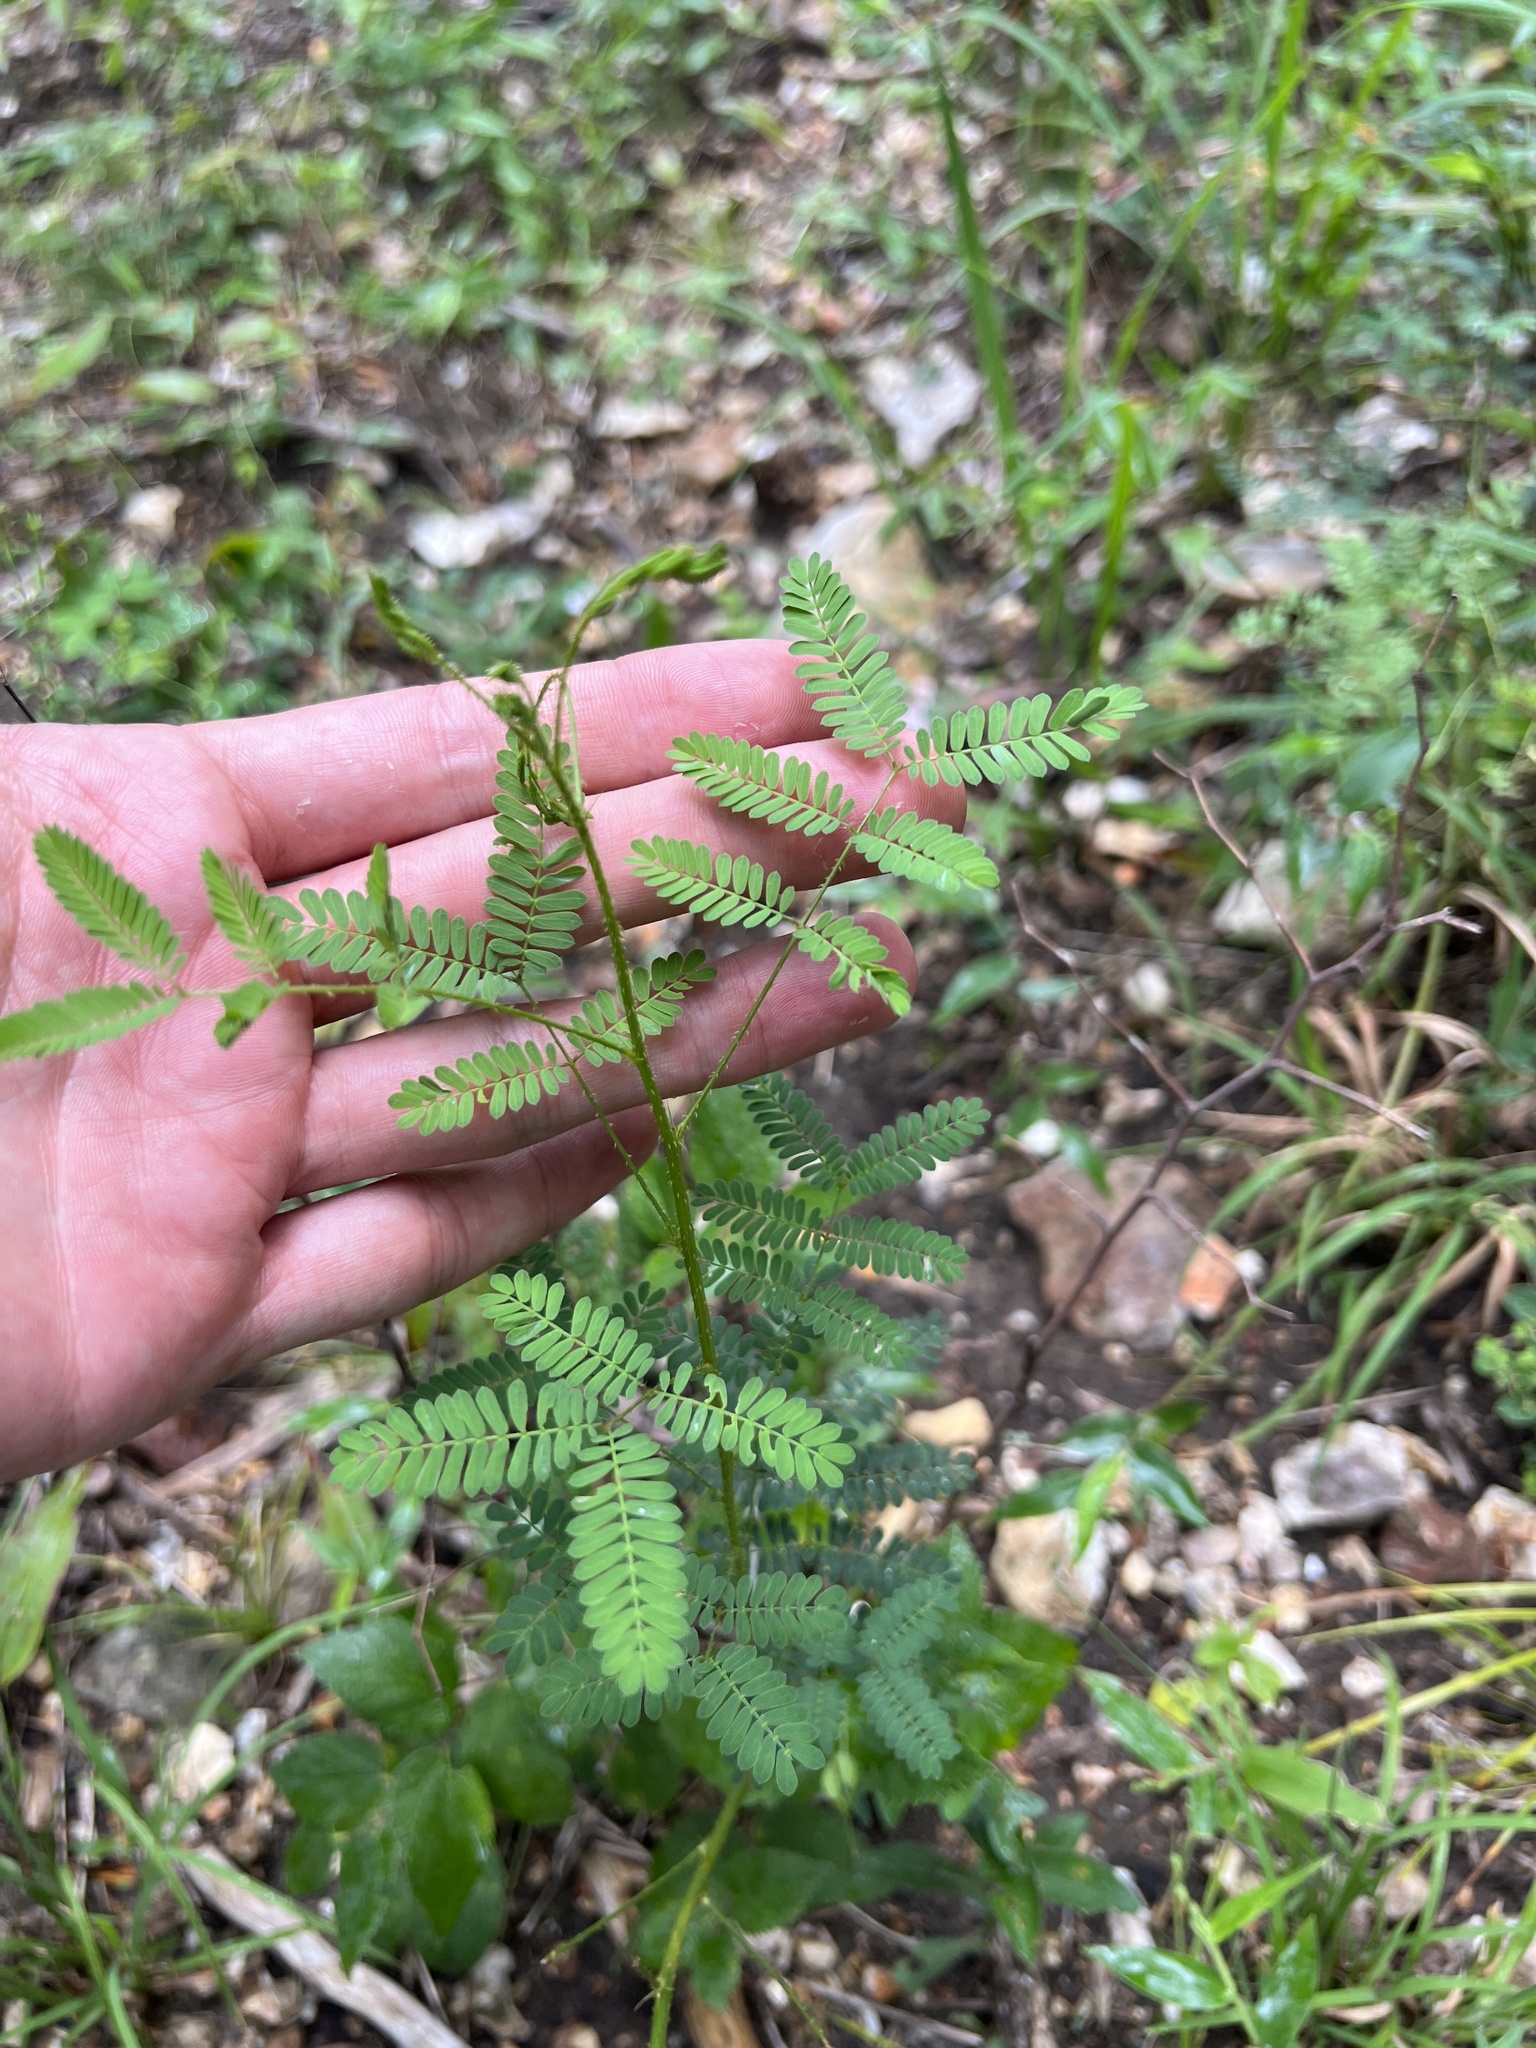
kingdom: Plantae
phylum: Tracheophyta
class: Magnoliopsida
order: Fabales
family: Fabaceae
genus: Mimosa
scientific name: Mimosa quadrivalvis
